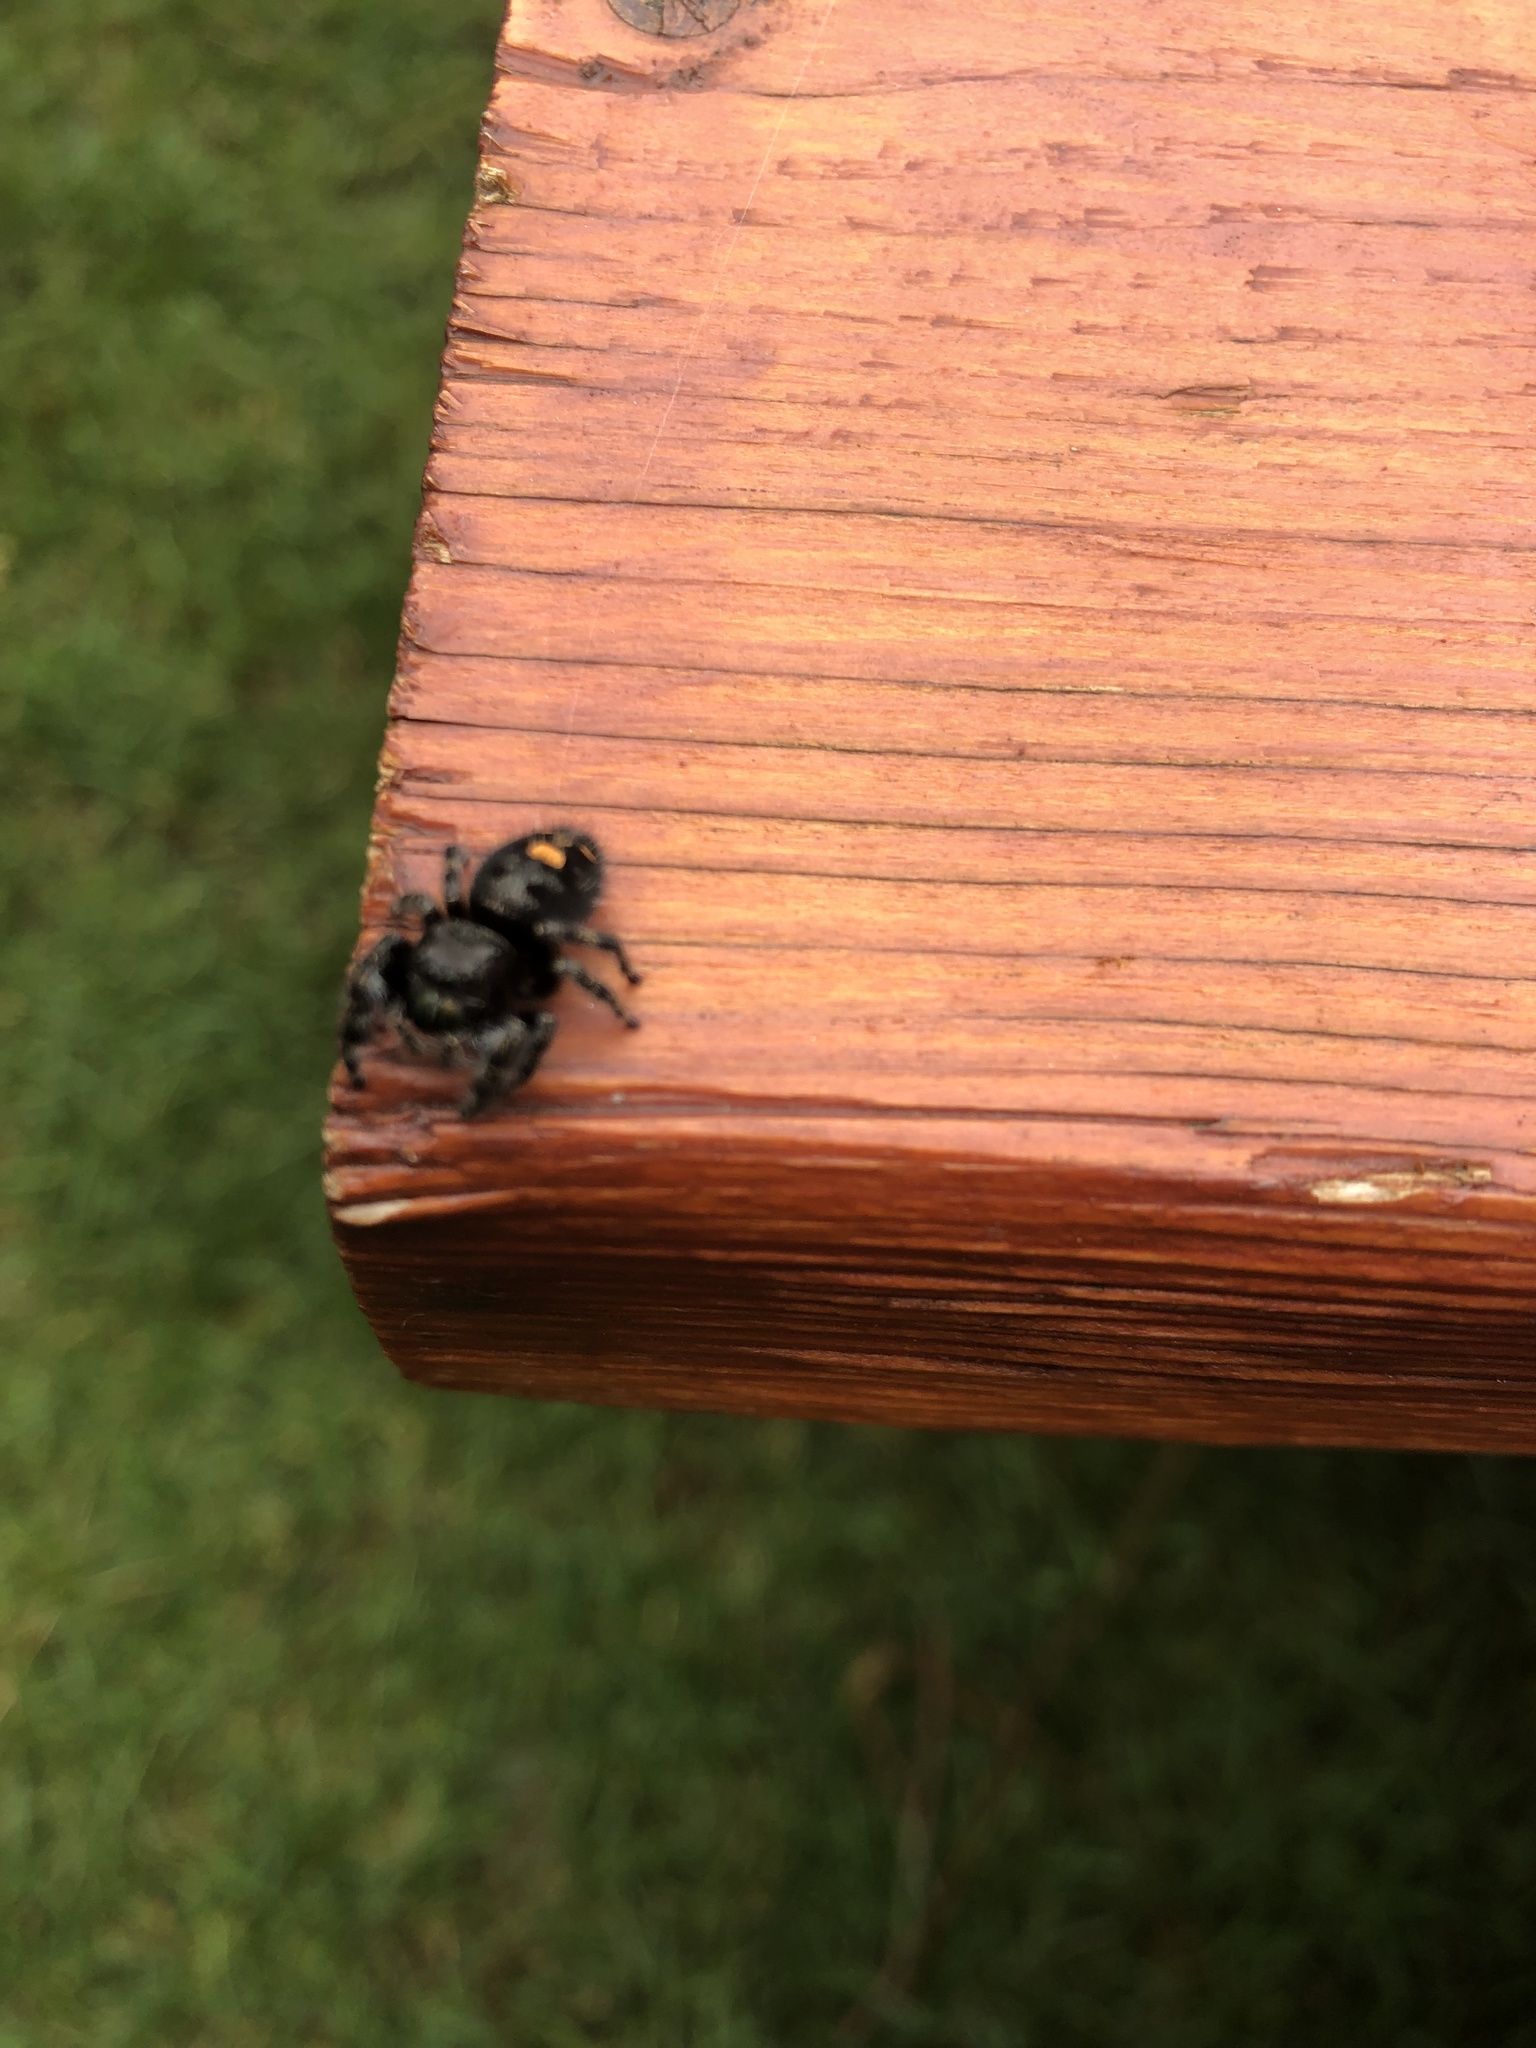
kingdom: Animalia
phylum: Arthropoda
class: Arachnida
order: Araneae
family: Salticidae
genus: Phidippus
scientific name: Phidippus audax
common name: Bold jumper
